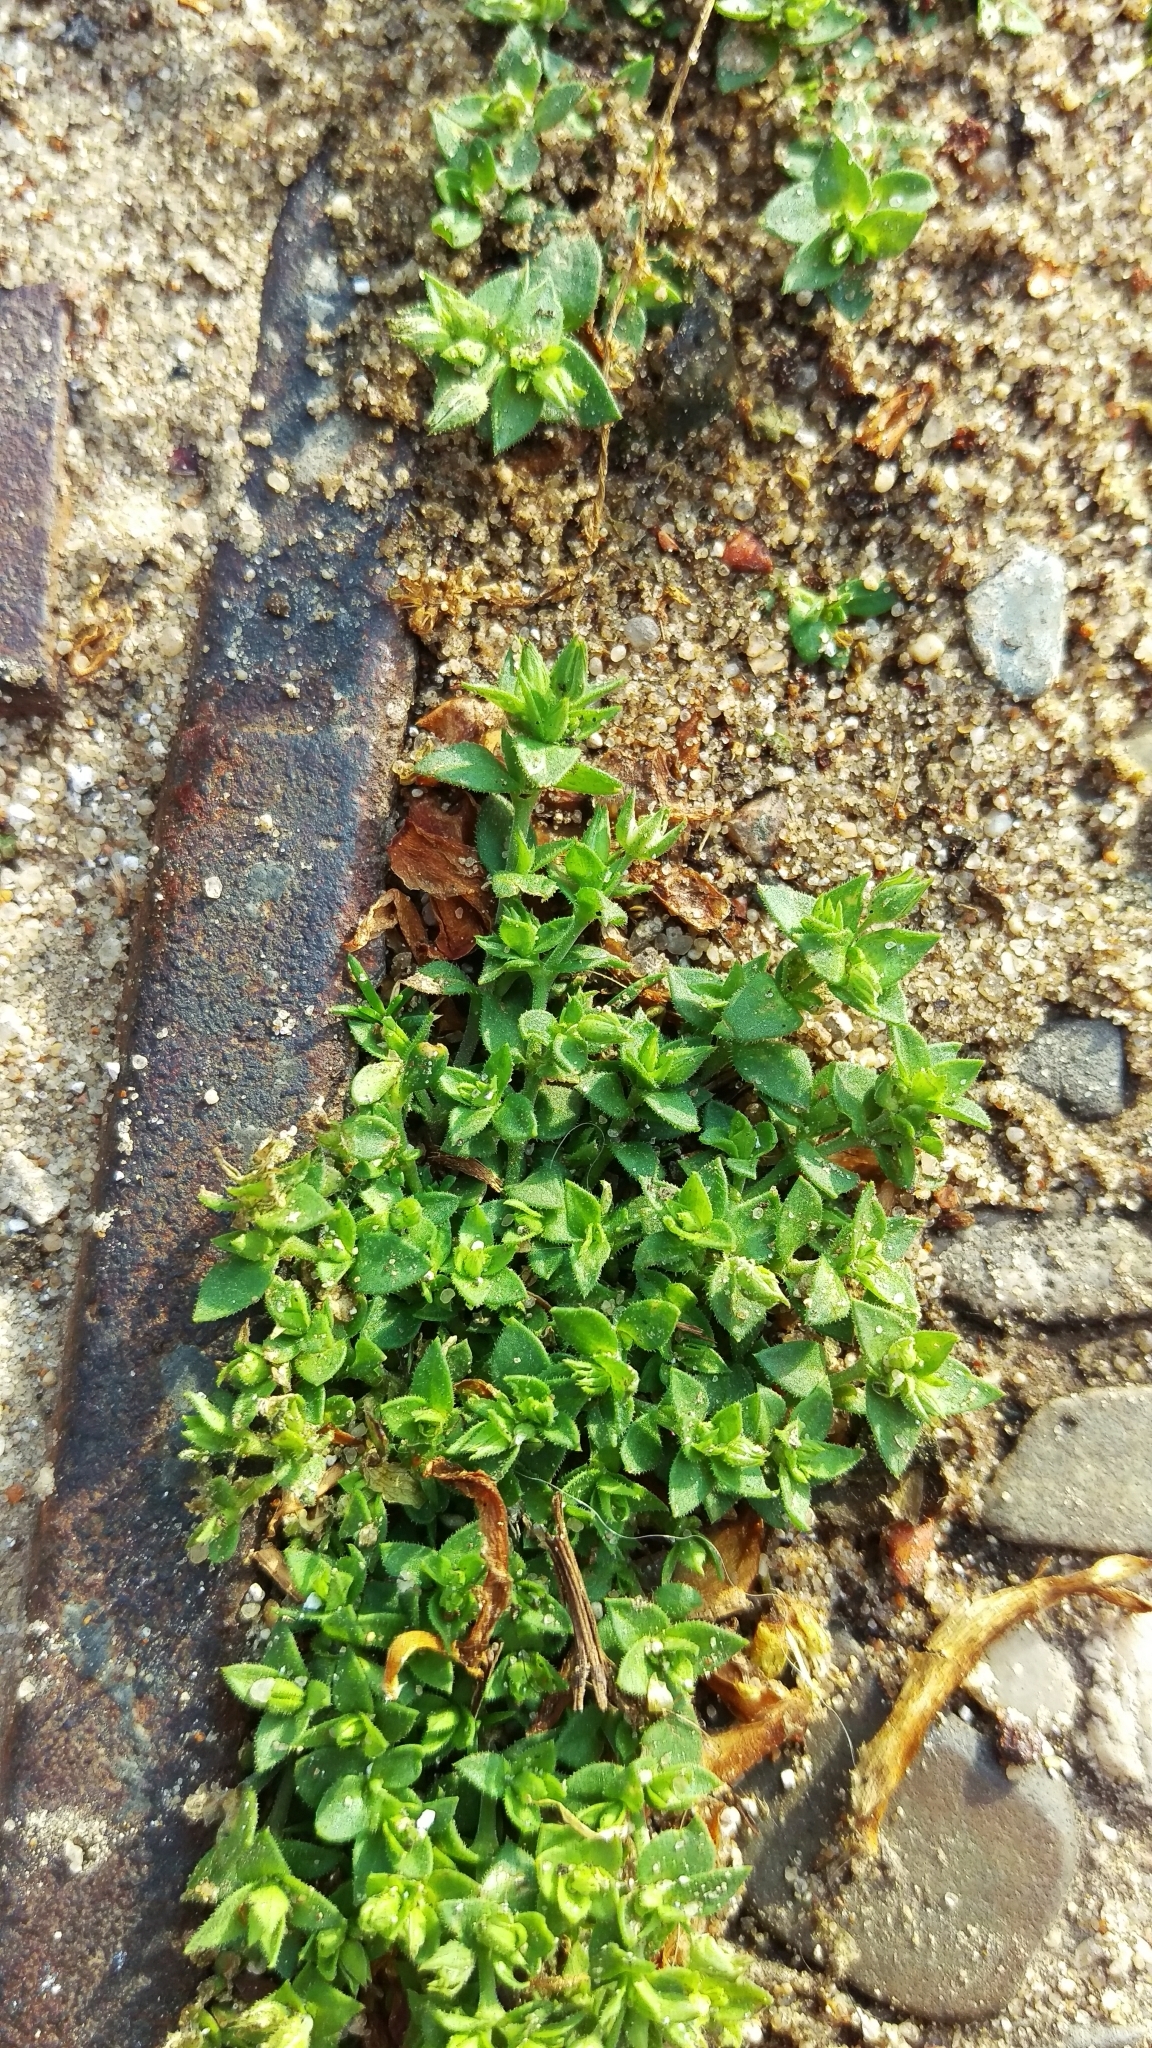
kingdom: Plantae
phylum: Tracheophyta
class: Magnoliopsida
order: Caryophyllales
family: Caryophyllaceae
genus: Arenaria
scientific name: Arenaria serpyllifolia
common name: Thyme-leaved sandwort
